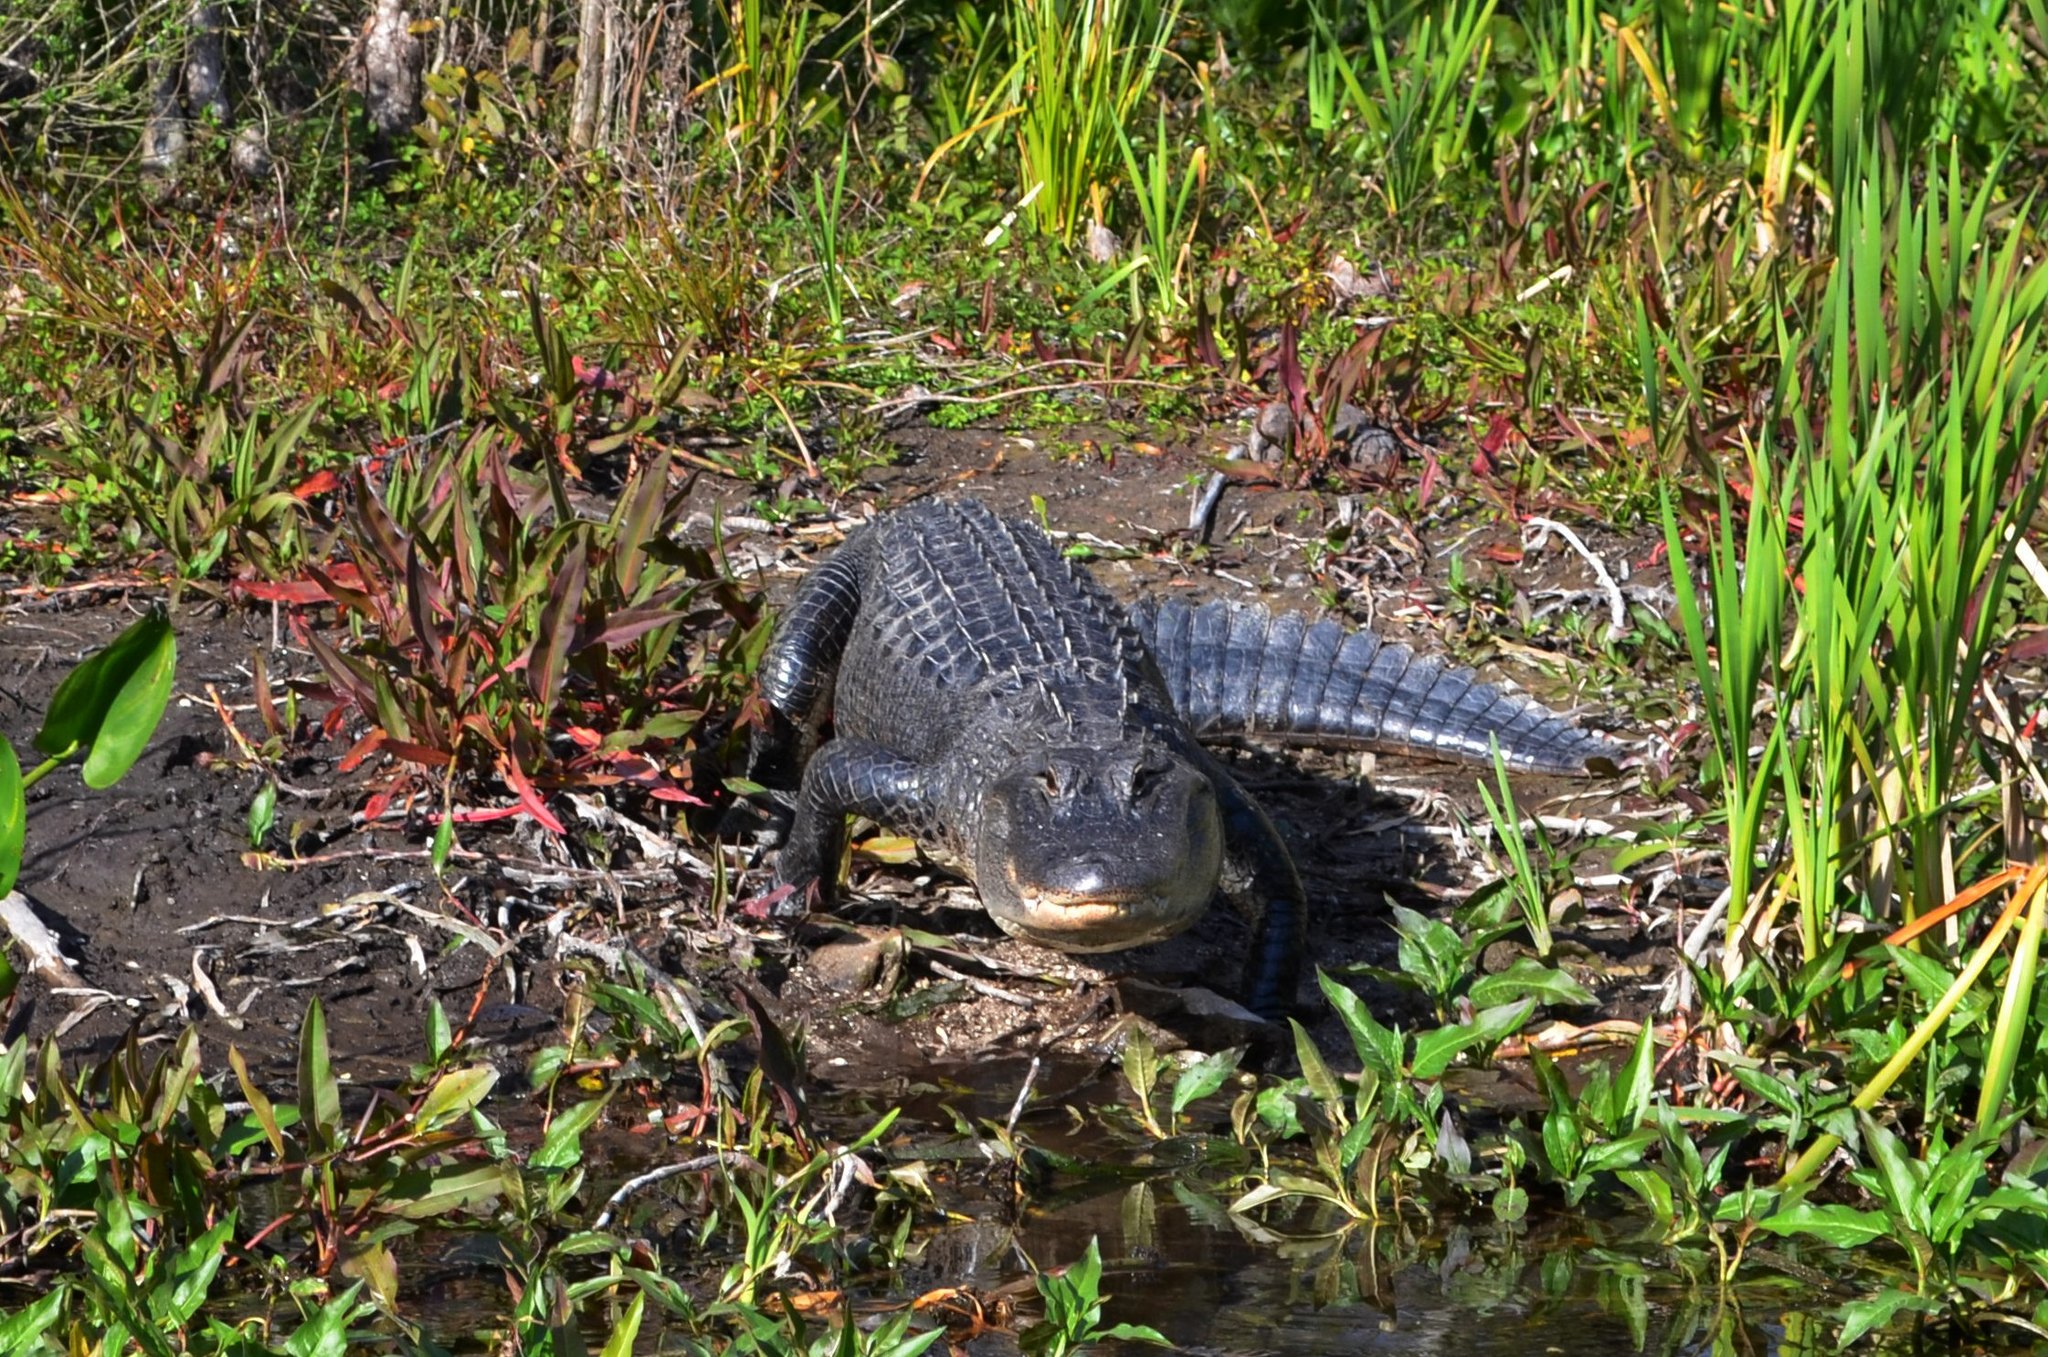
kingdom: Animalia
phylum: Chordata
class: Crocodylia
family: Alligatoridae
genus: Alligator
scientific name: Alligator mississippiensis
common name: American alligator
